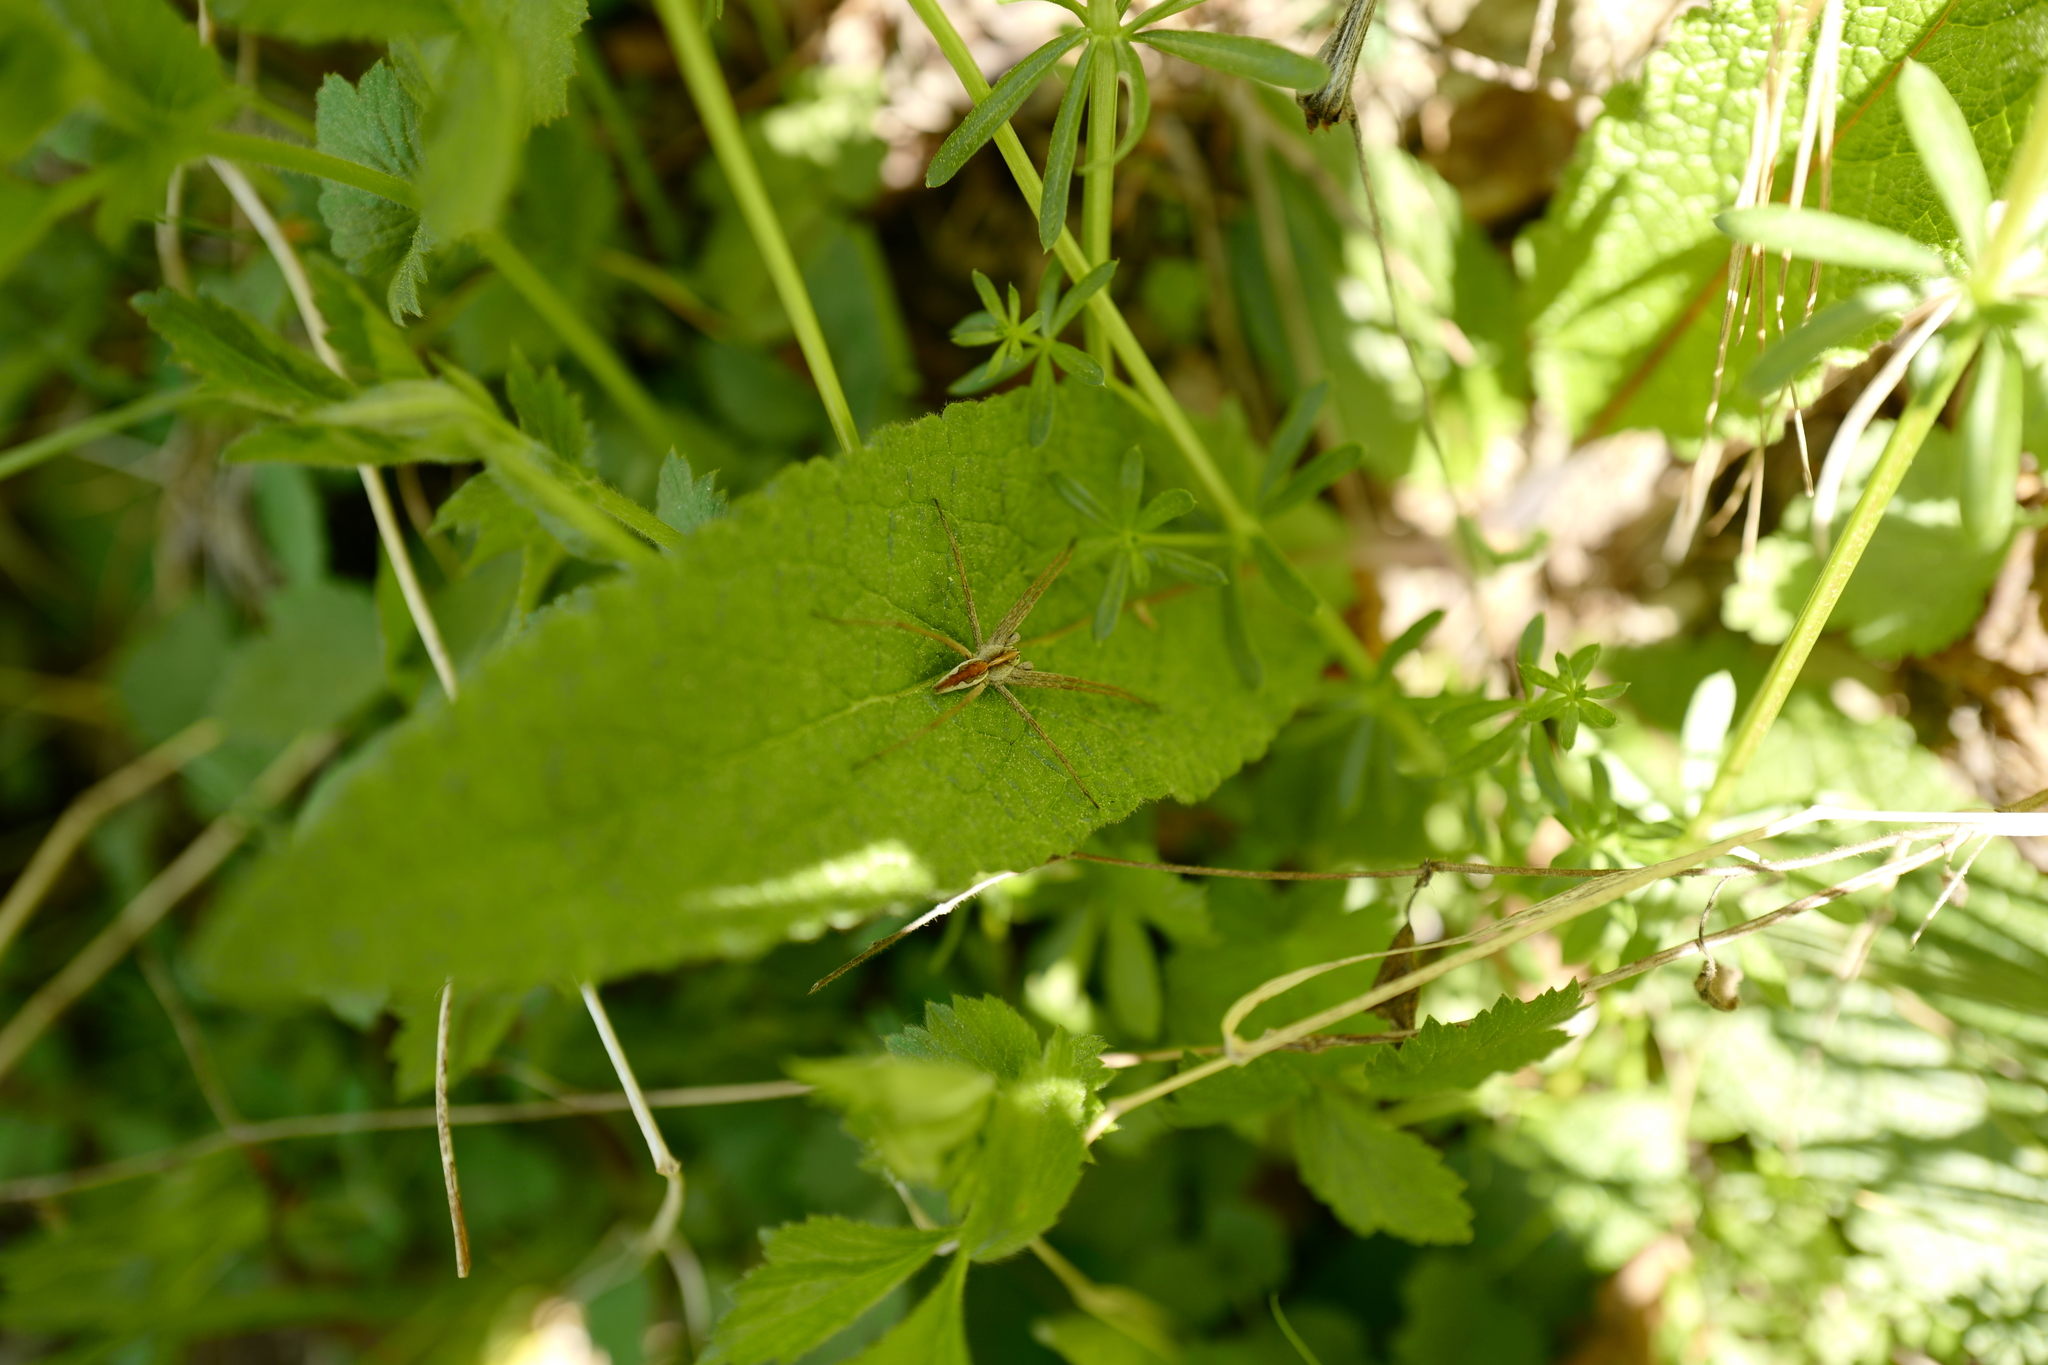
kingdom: Animalia
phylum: Arthropoda
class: Arachnida
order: Araneae
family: Pisauridae
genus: Pisaura
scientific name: Pisaura mirabilis
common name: Tent spider
